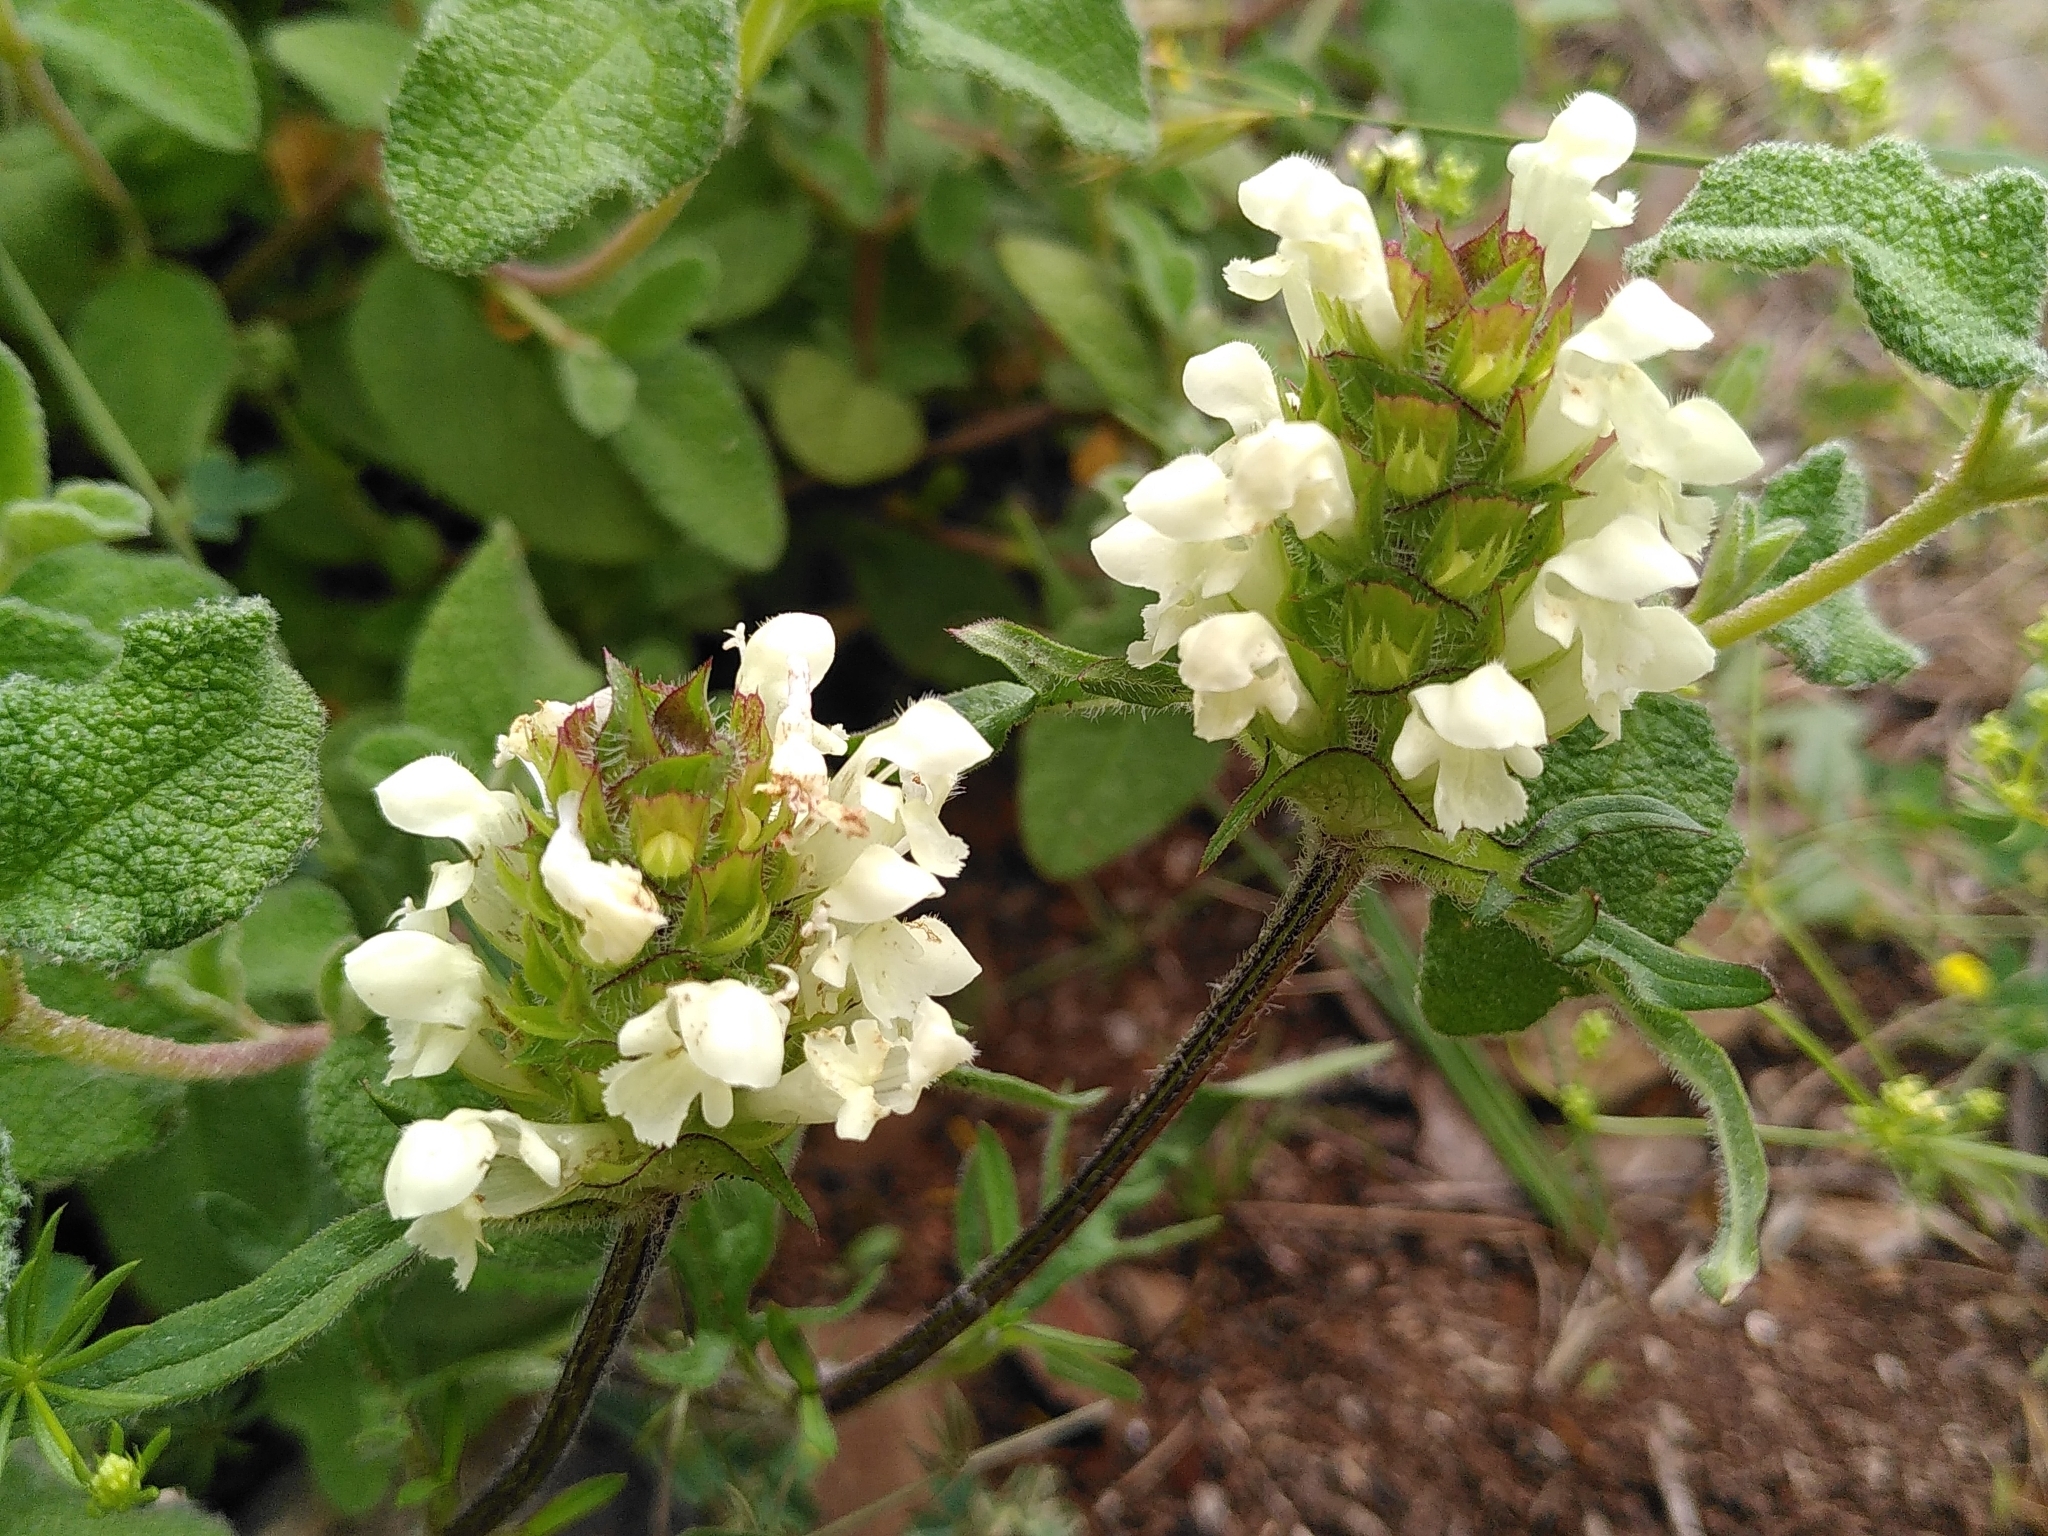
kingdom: Plantae
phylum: Tracheophyta
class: Magnoliopsida
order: Lamiales
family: Lamiaceae
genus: Prunella
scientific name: Prunella laciniata
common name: Cut-leaved selfheal
